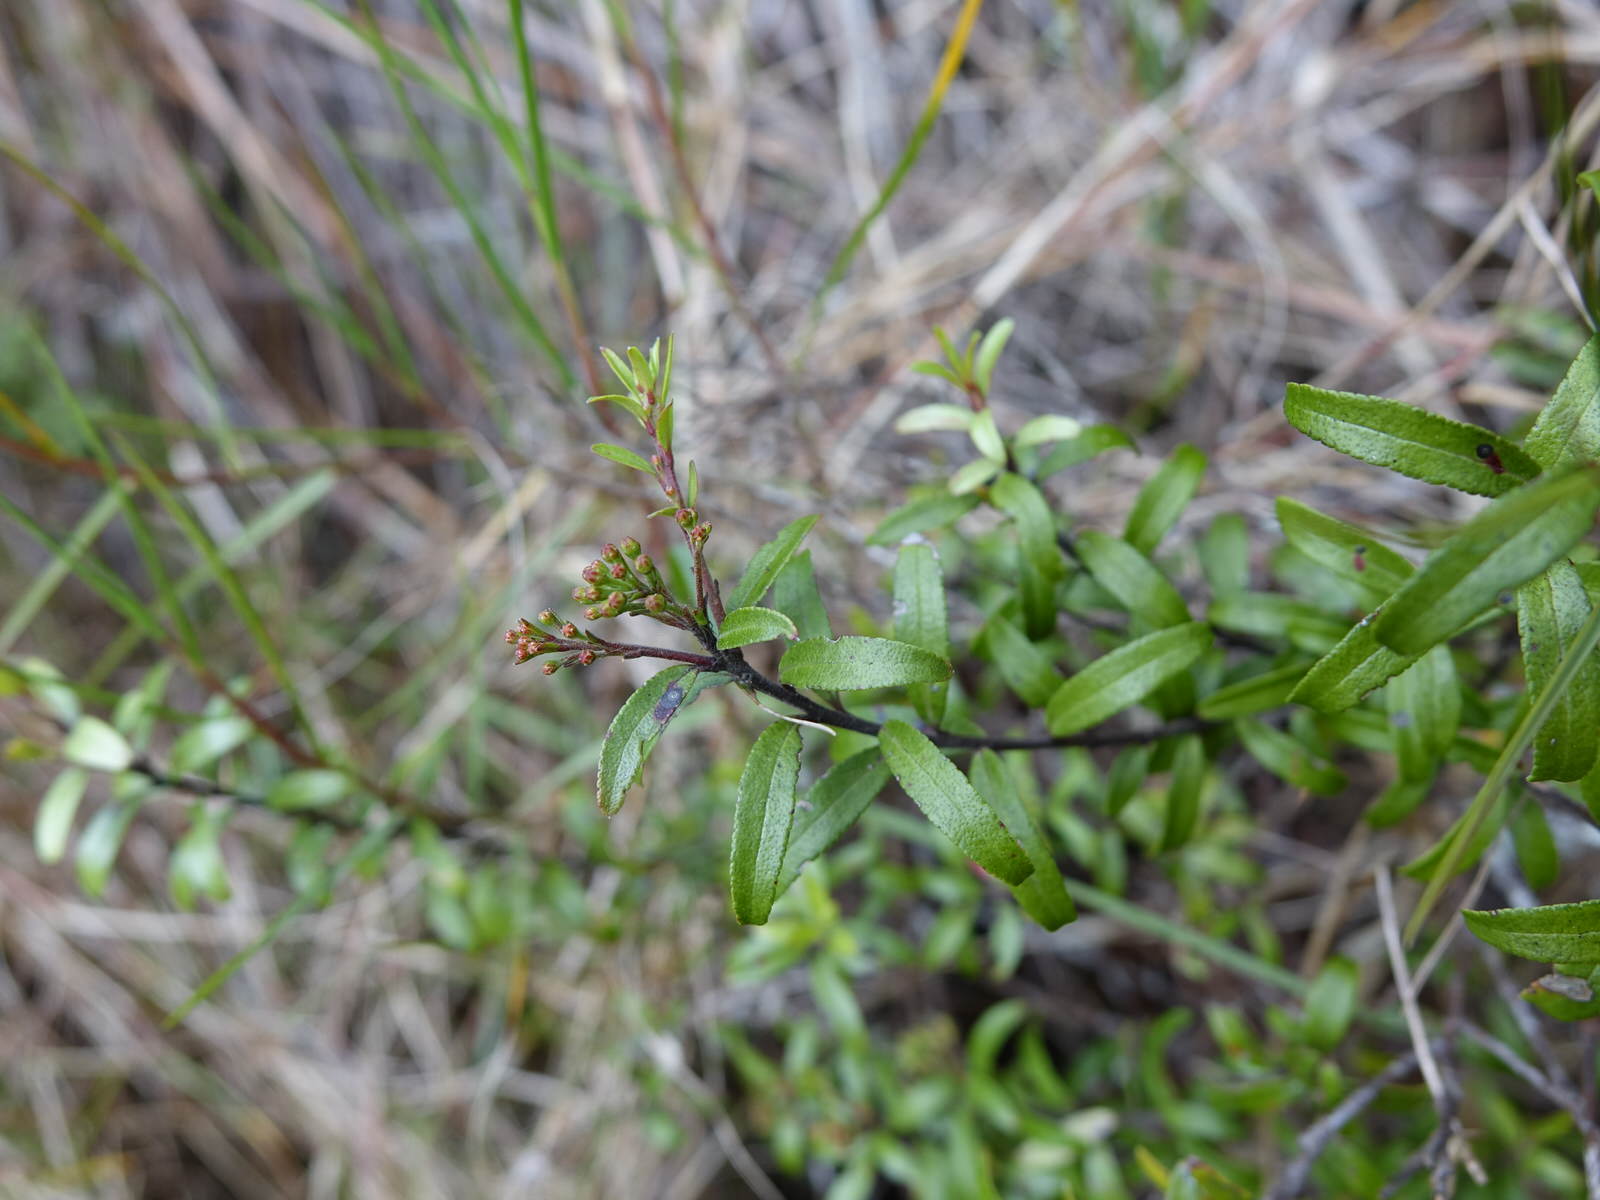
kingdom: Plantae
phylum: Tracheophyta
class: Magnoliopsida
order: Sapindales
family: Rutaceae
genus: Leionema
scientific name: Leionema nudum
